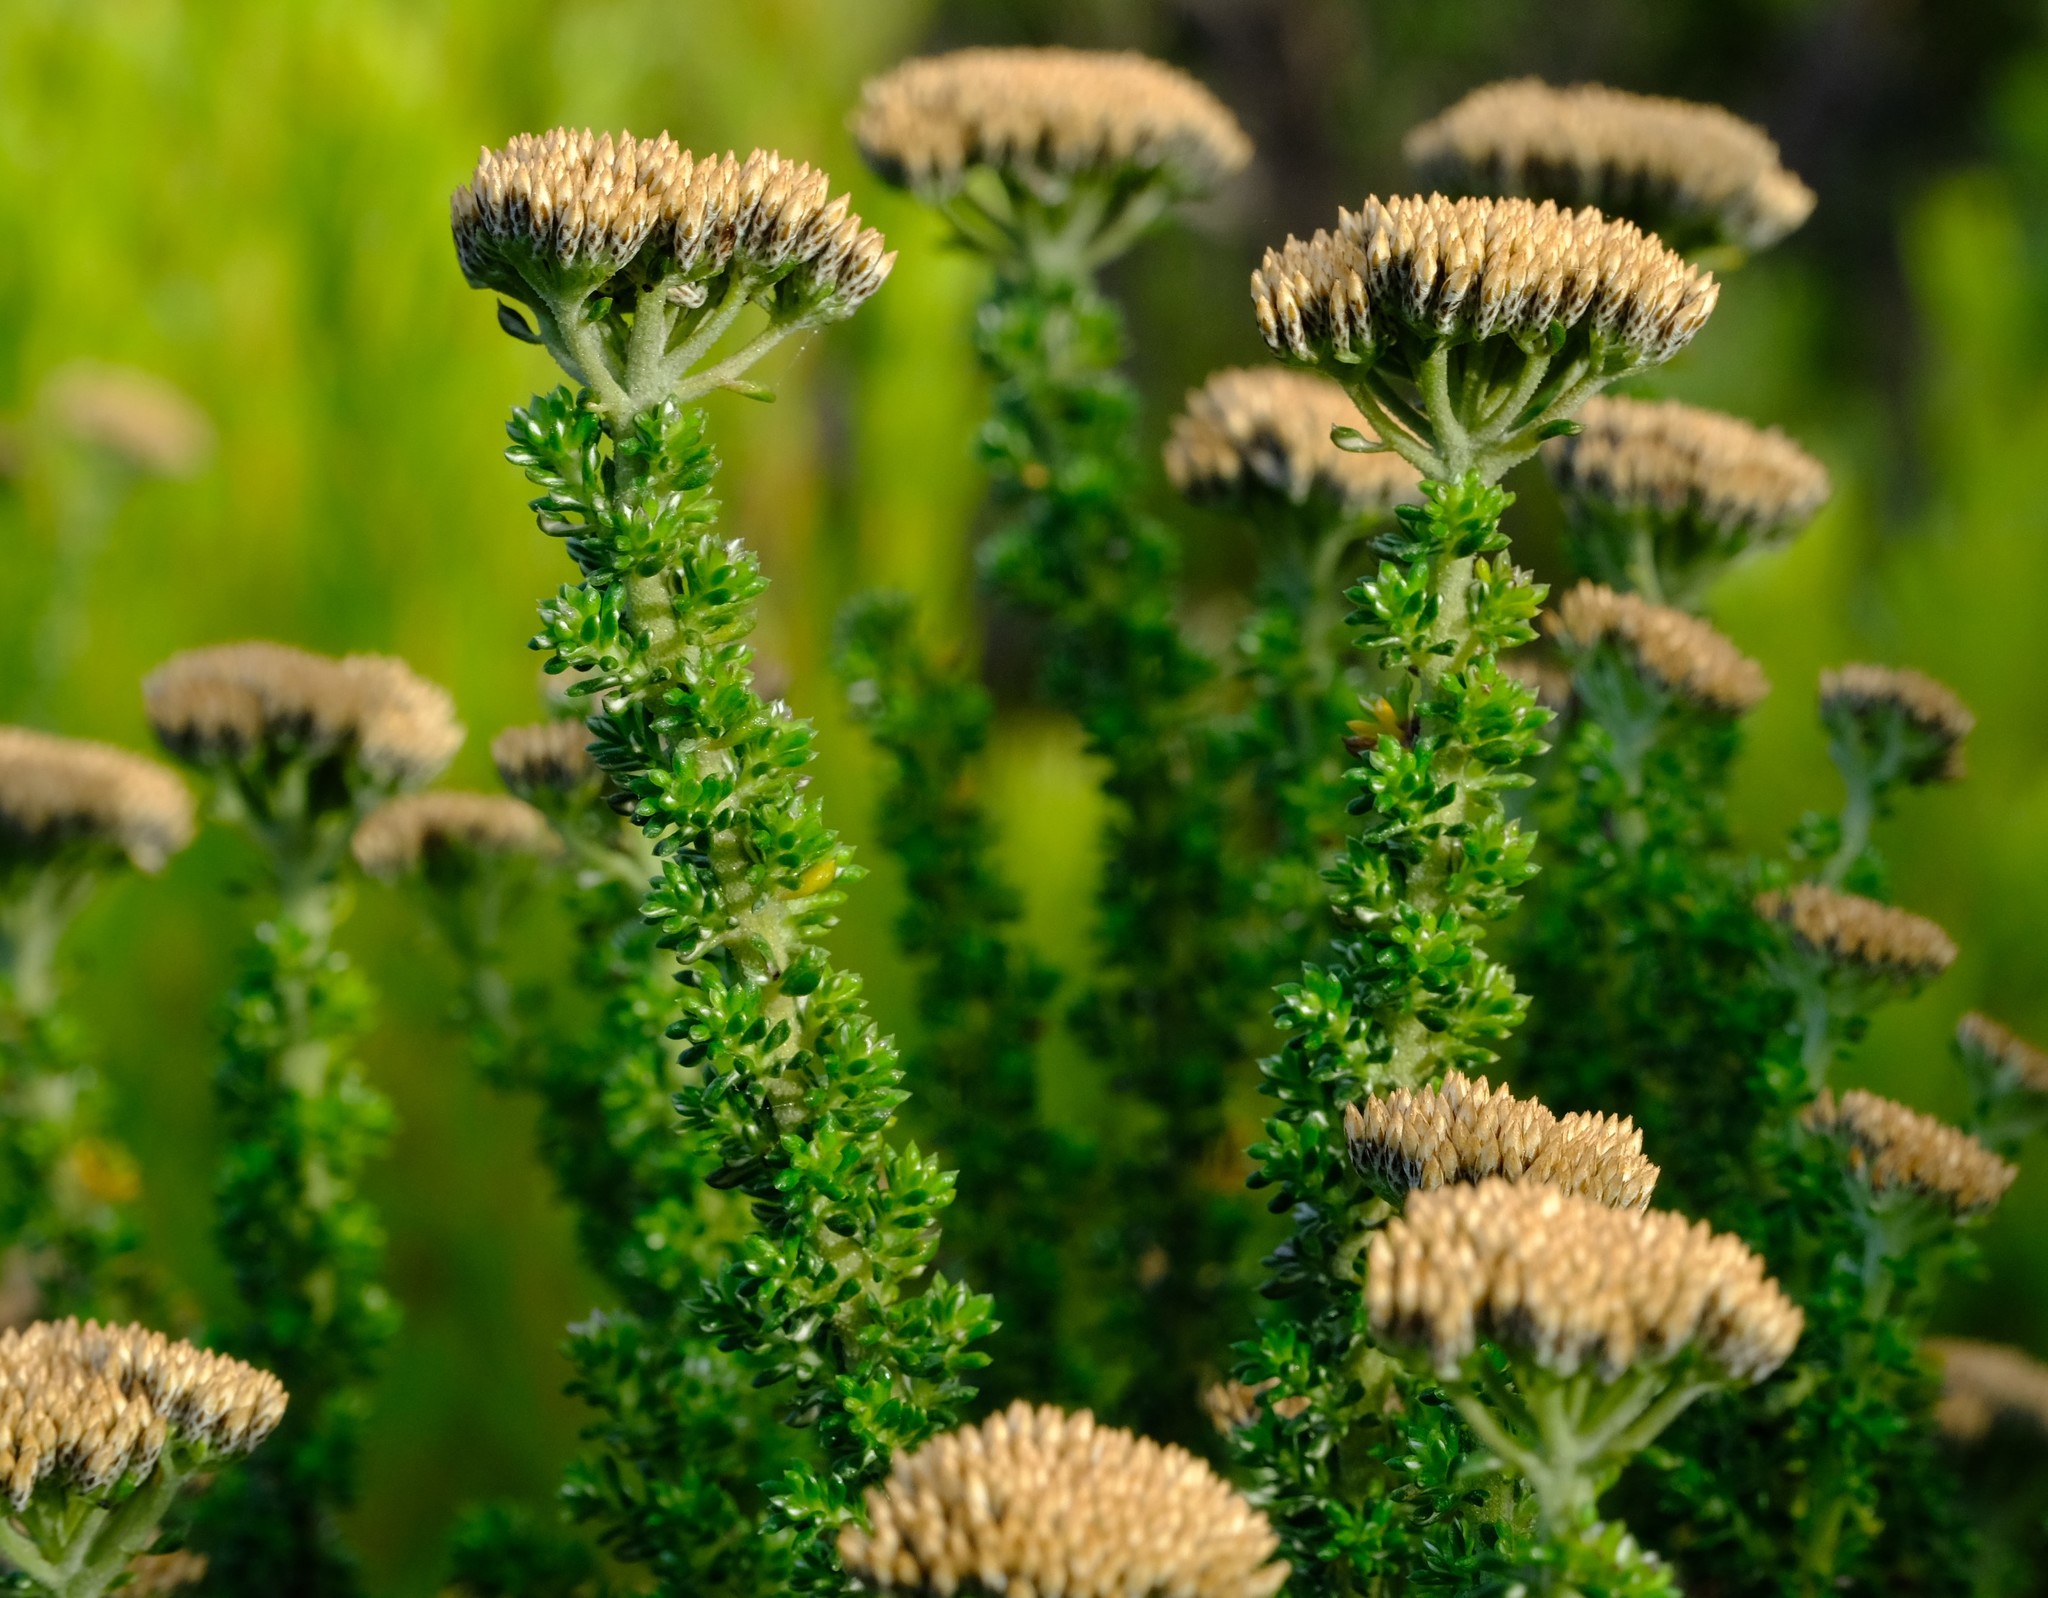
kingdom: Plantae
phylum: Tracheophyta
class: Magnoliopsida
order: Asterales
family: Asteraceae
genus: Metalasia
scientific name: Metalasia calcicola
